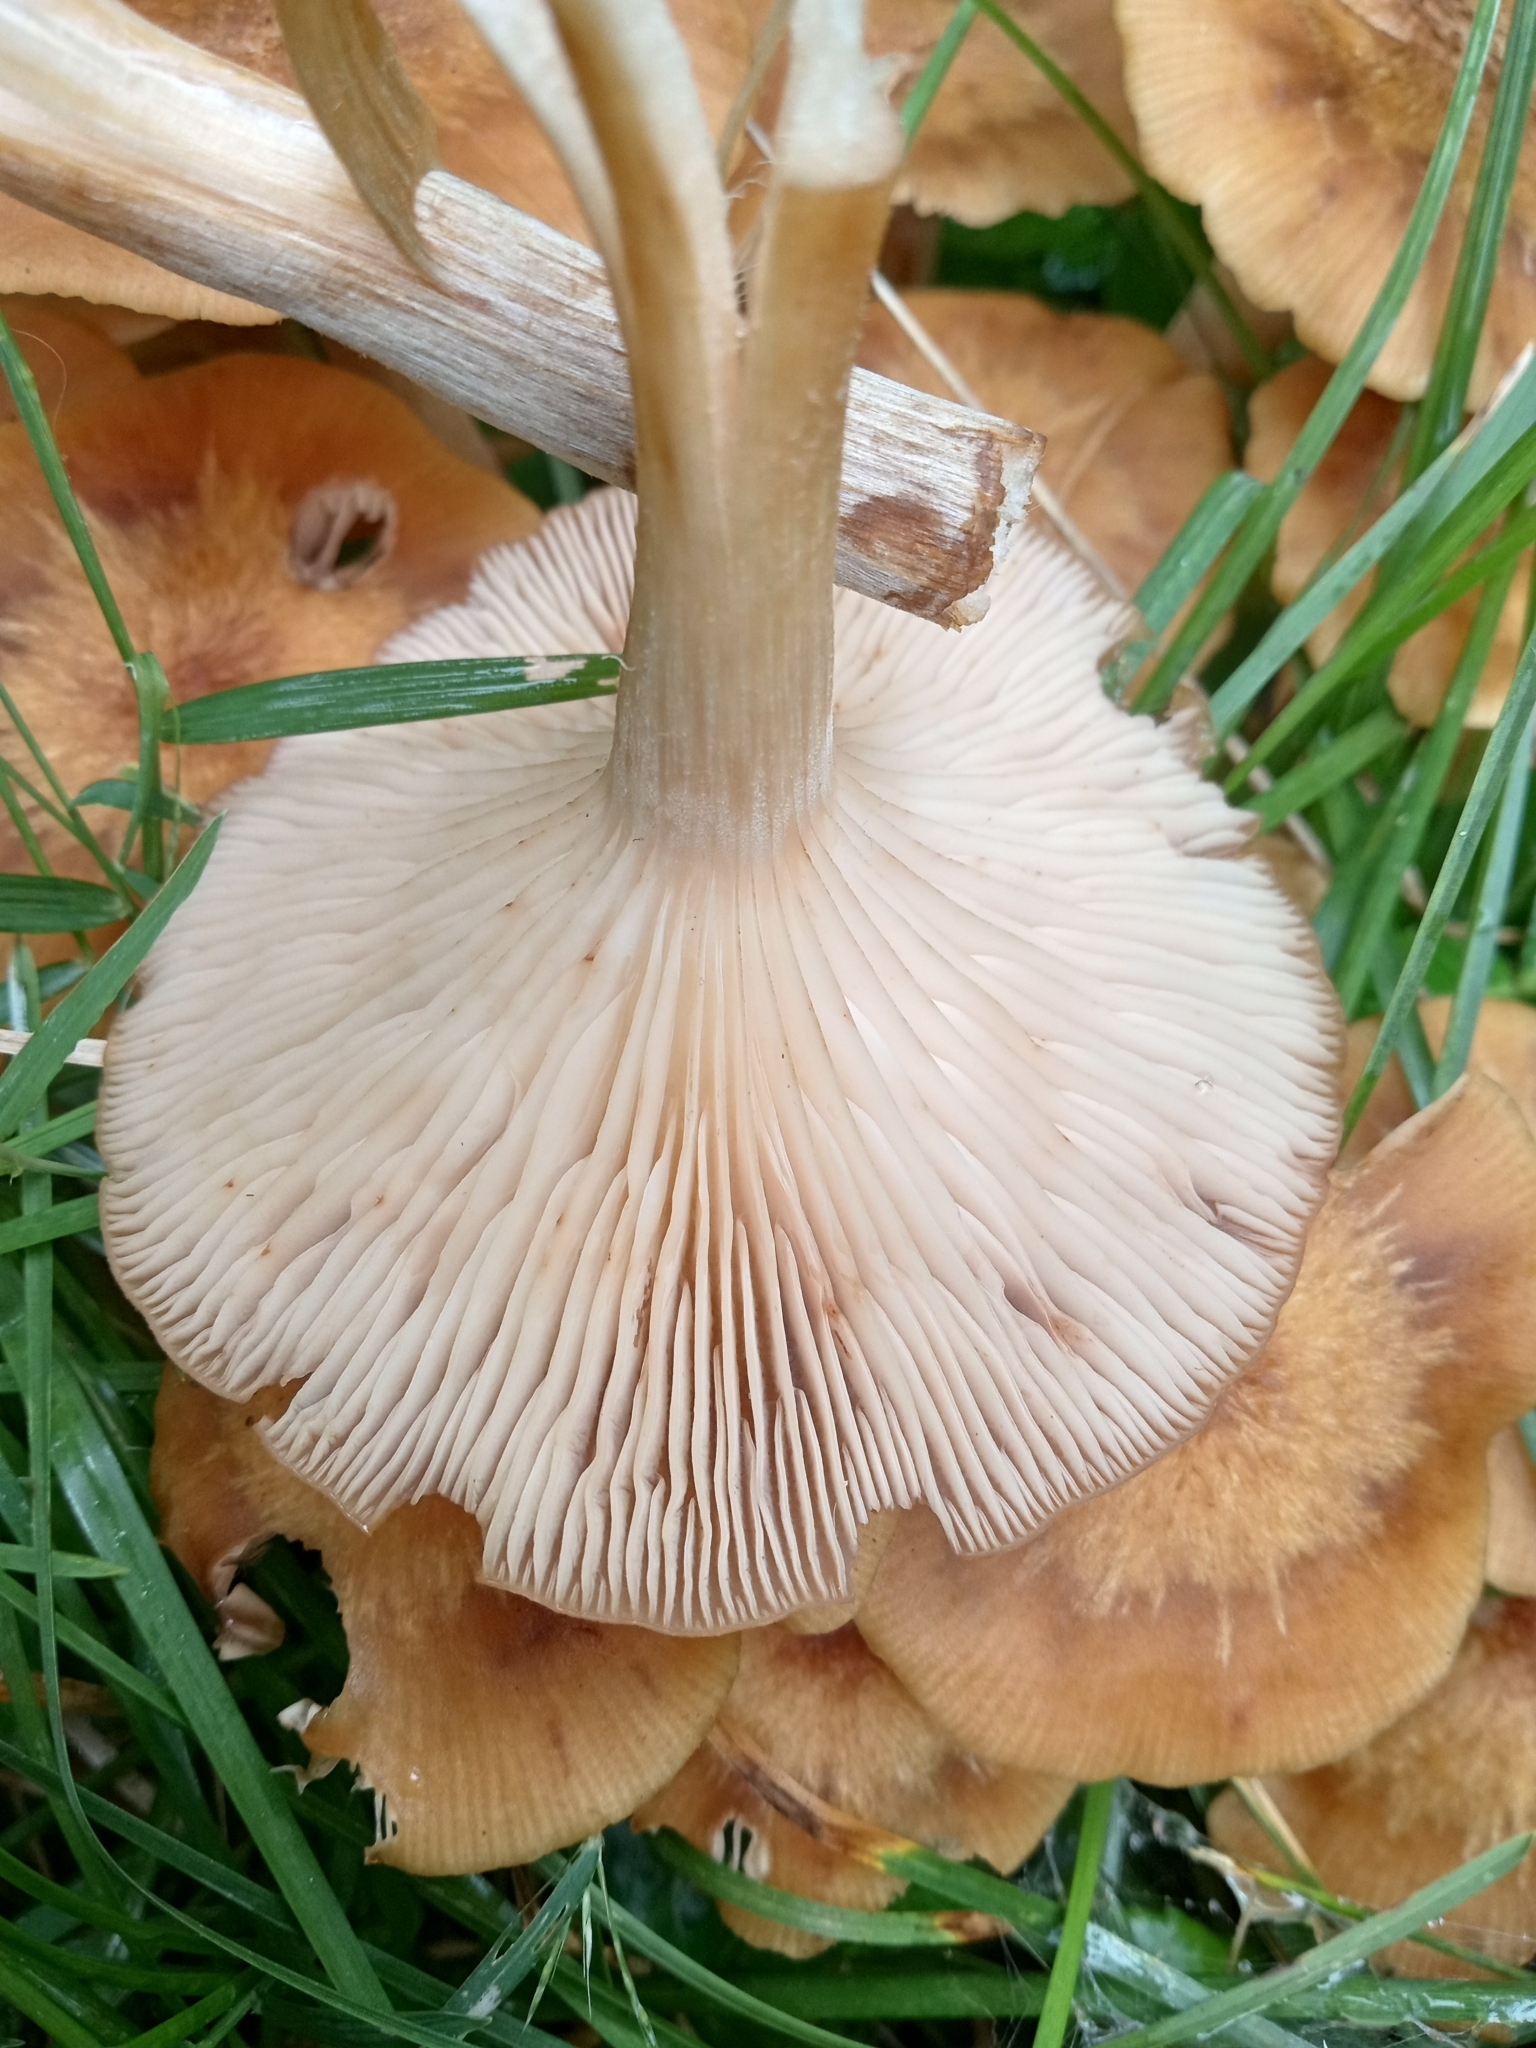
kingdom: Fungi
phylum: Basidiomycota
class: Agaricomycetes
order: Agaricales
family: Physalacriaceae
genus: Desarmillaria
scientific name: Desarmillaria caespitosa
